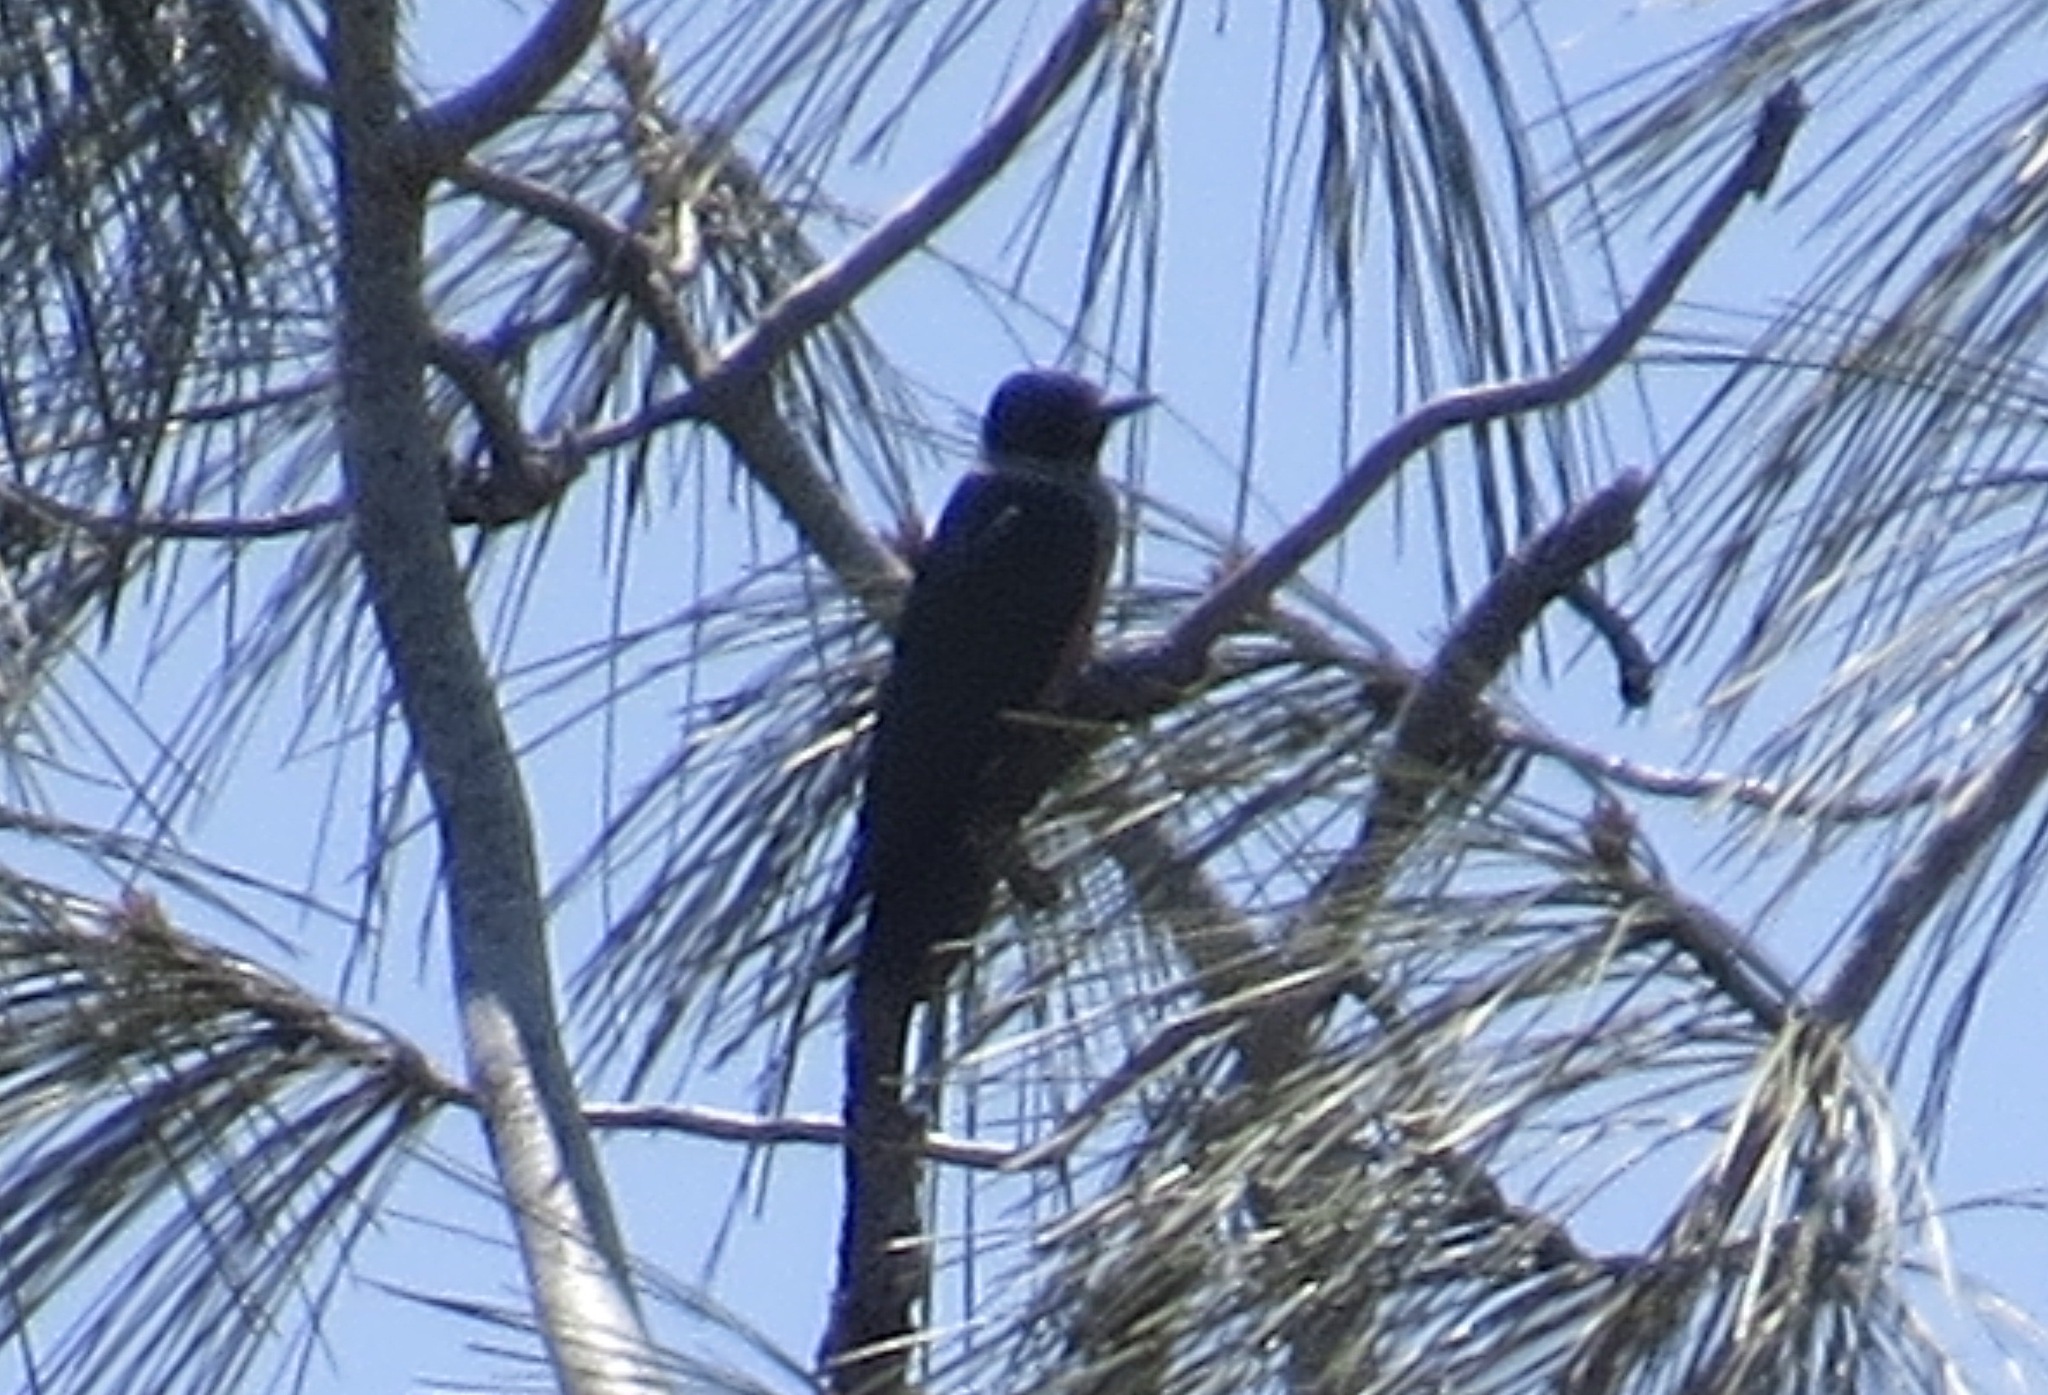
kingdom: Animalia
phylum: Chordata
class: Aves
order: Piciformes
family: Picidae
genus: Melanerpes
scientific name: Melanerpes lewis
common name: Lewis's woodpecker
